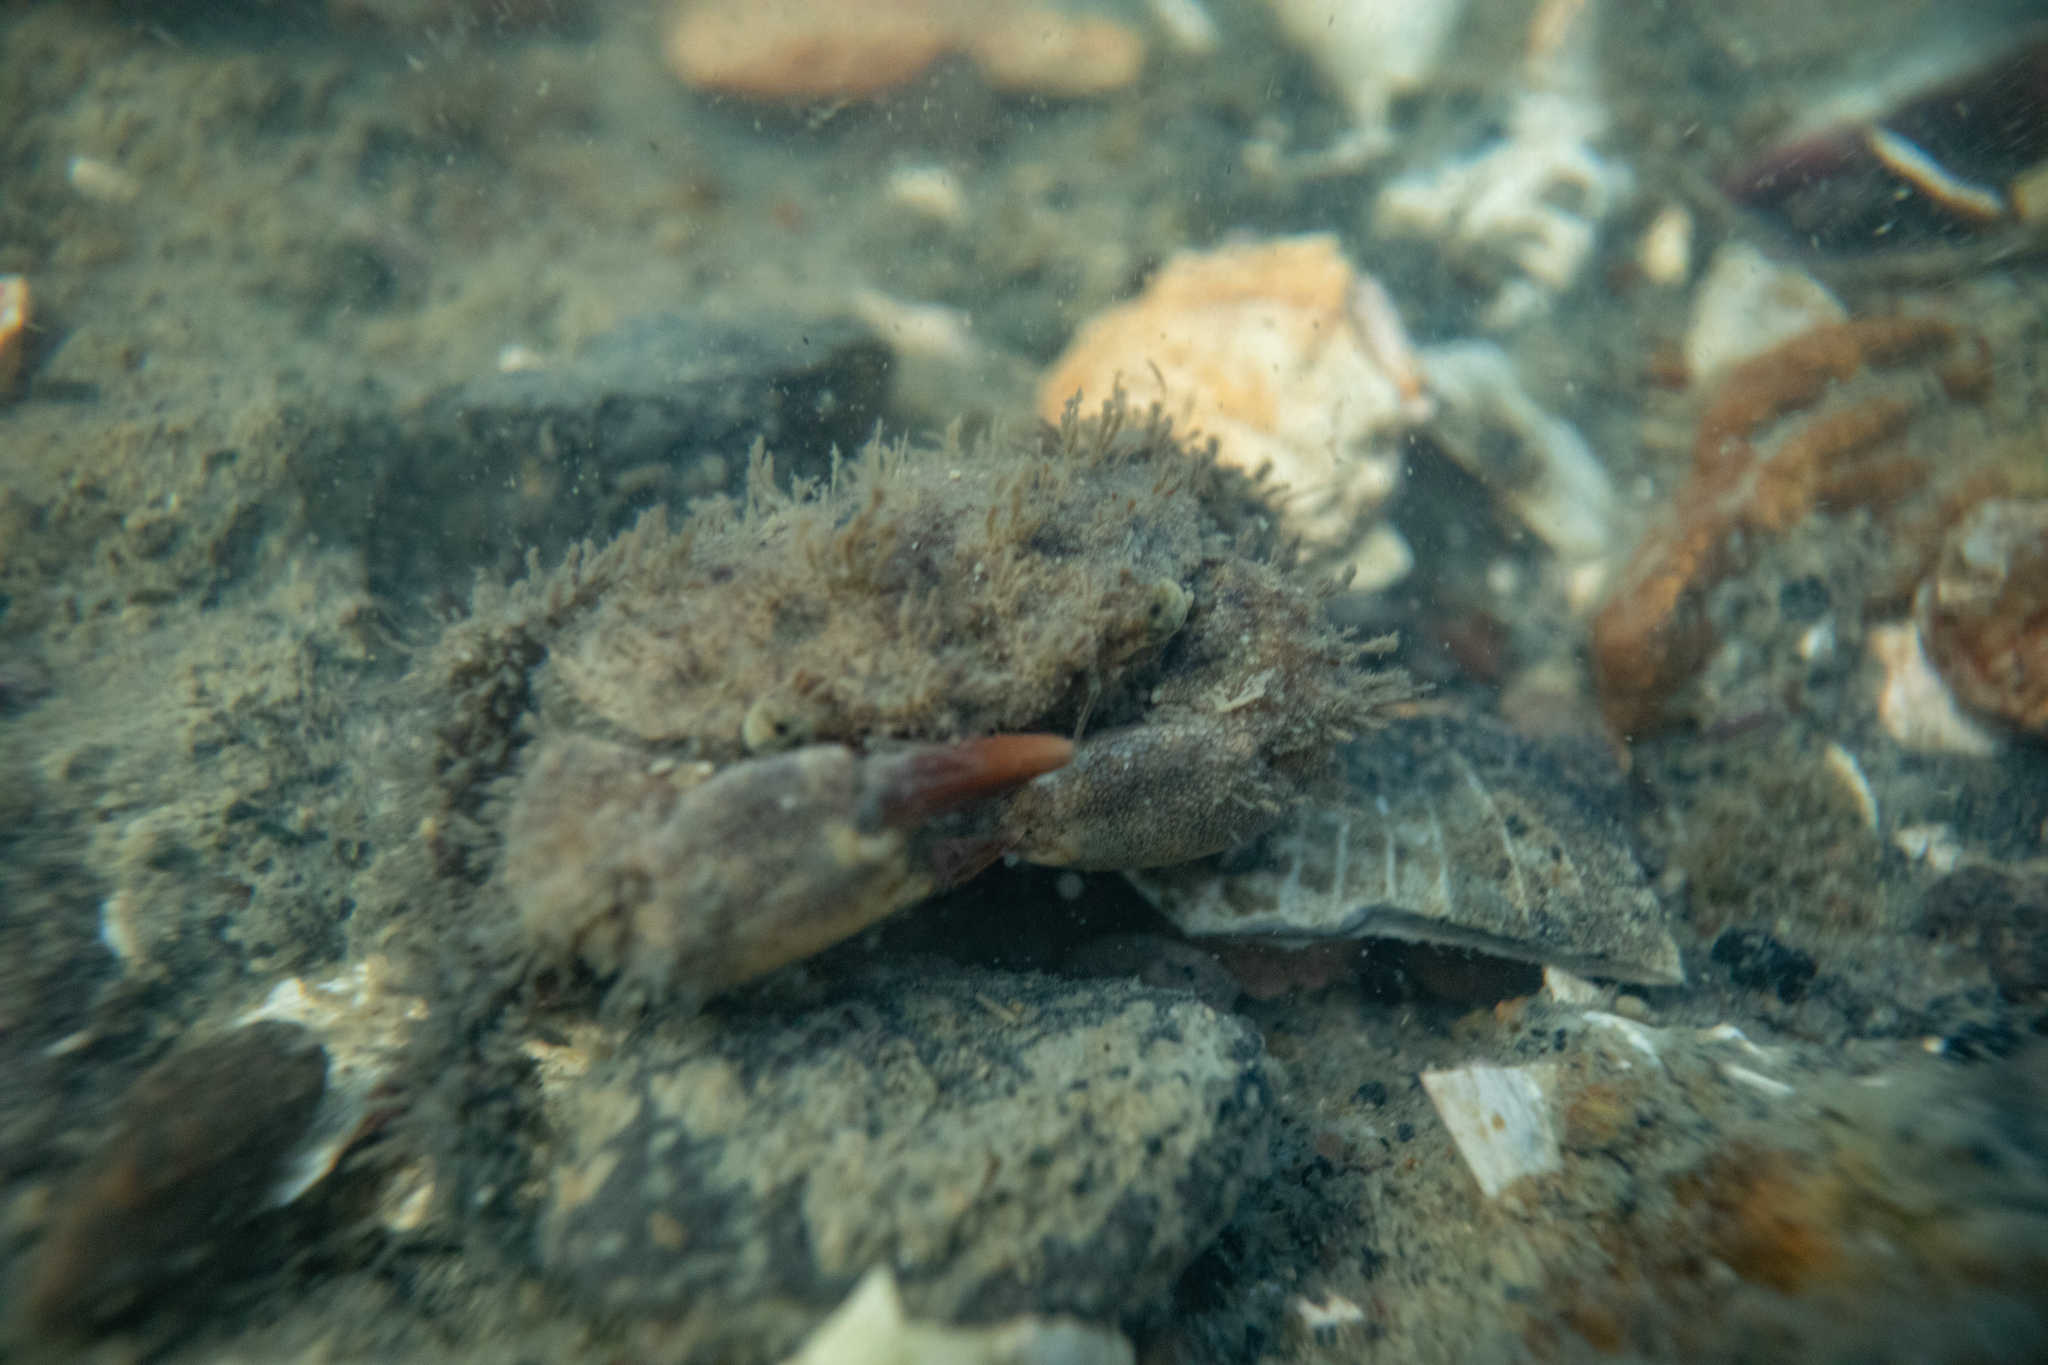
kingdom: Animalia
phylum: Arthropoda
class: Malacostraca
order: Decapoda
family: Pilumnidae
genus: Pilumnopeus
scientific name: Pilumnopeus serratifrons
